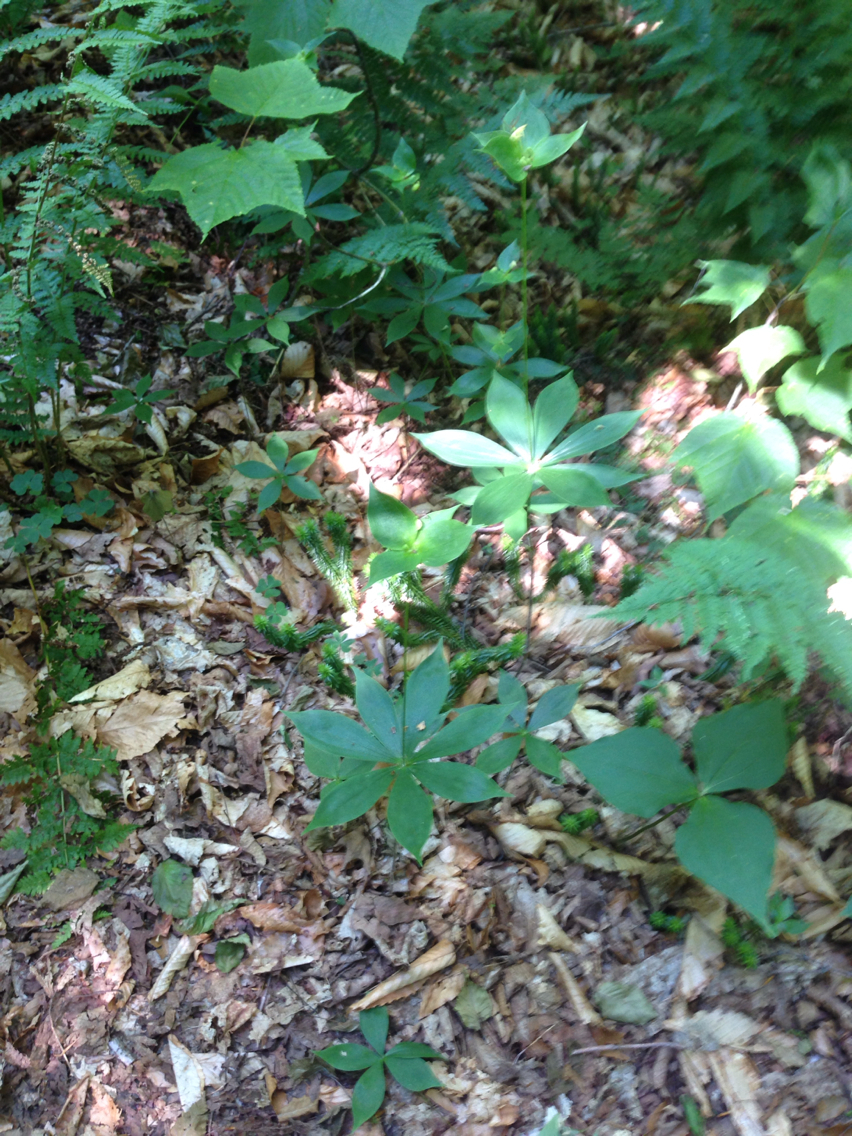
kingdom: Plantae
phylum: Tracheophyta
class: Liliopsida
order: Liliales
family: Liliaceae
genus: Medeola
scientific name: Medeola virginiana
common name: Indian cucumber-root
